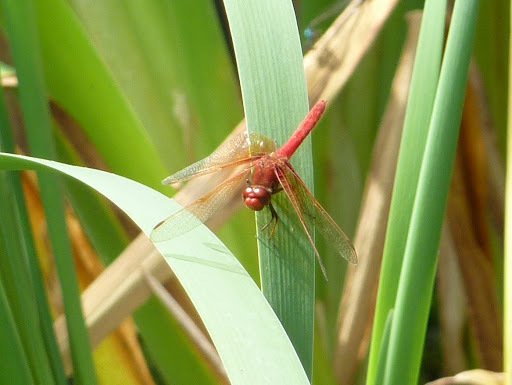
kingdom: Animalia
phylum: Arthropoda
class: Insecta
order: Odonata
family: Libellulidae
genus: Sympetrum
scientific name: Sympetrum illotum
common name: Cardinal meadowhawk
